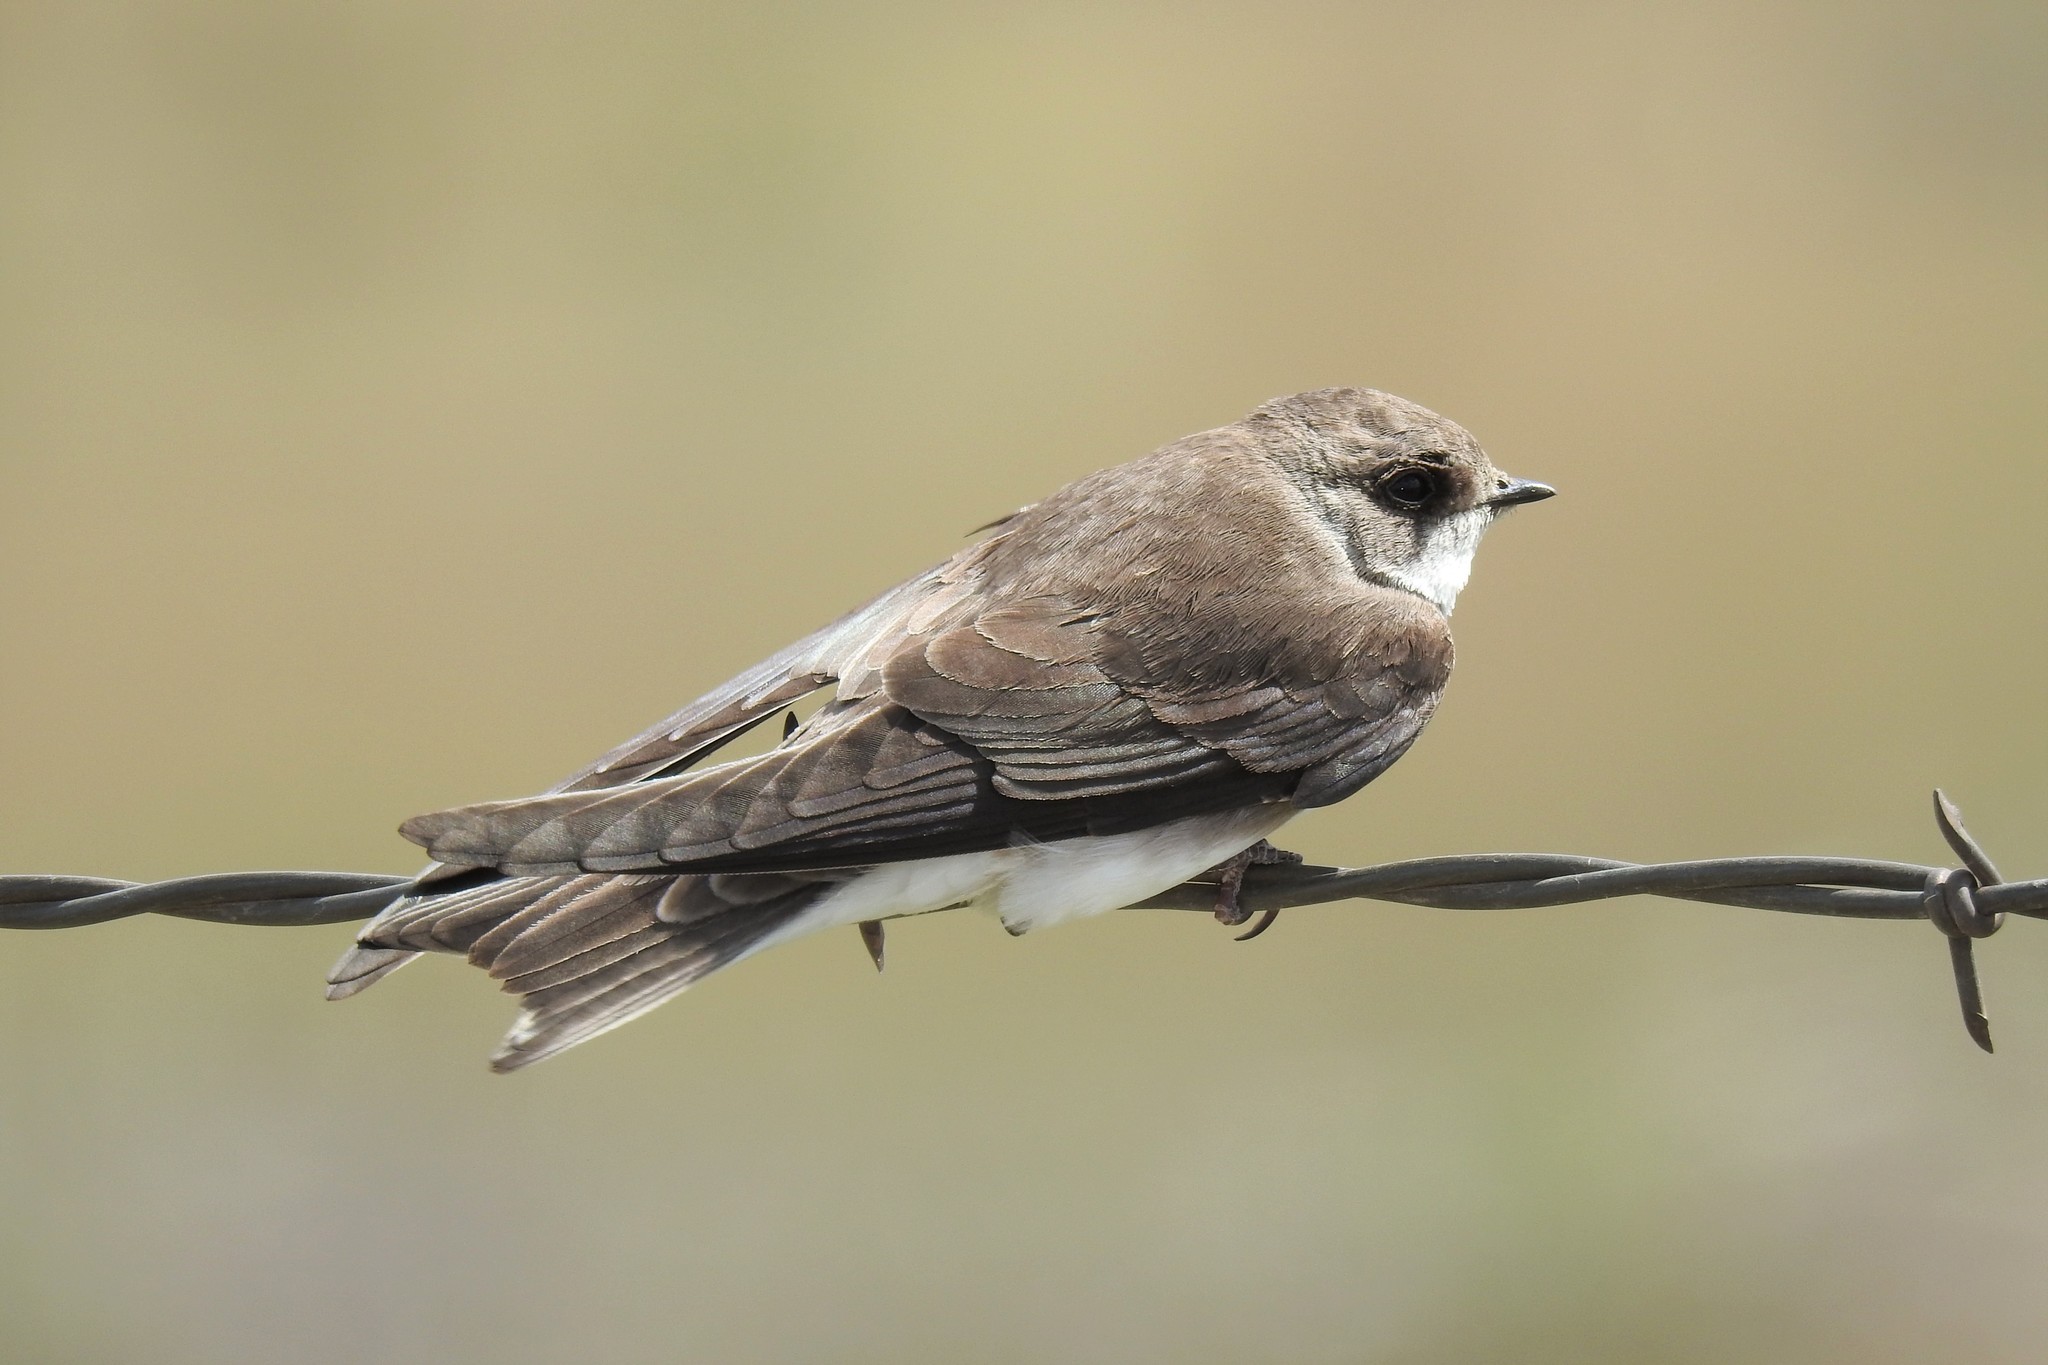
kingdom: Animalia
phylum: Chordata
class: Aves
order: Passeriformes
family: Hirundinidae
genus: Riparia
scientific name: Riparia riparia
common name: Sand martin
